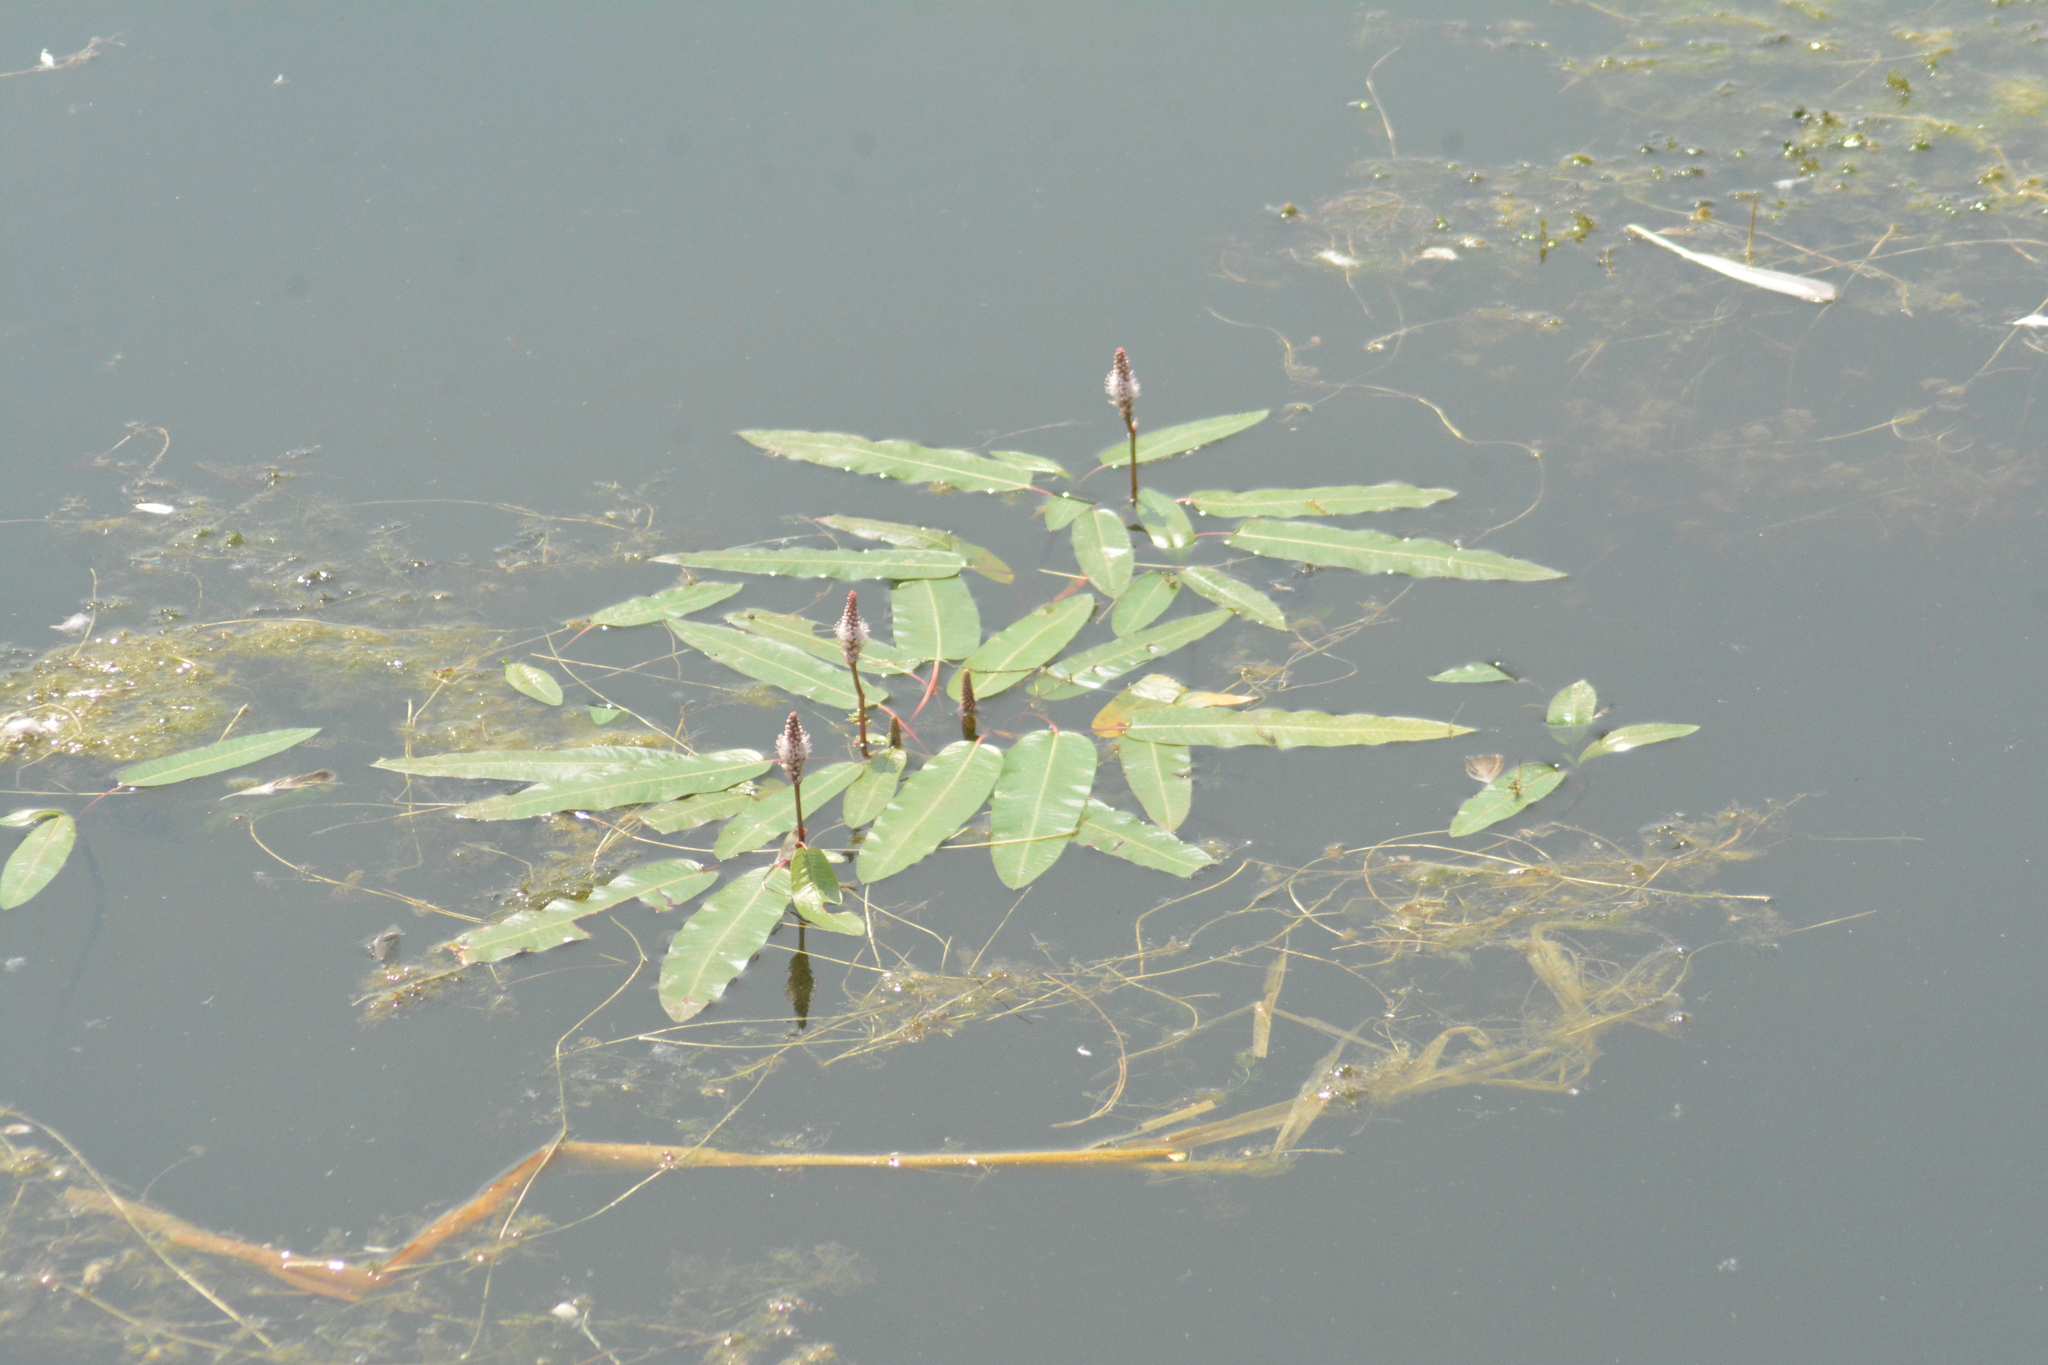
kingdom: Plantae
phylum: Tracheophyta
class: Magnoliopsida
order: Caryophyllales
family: Polygonaceae
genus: Persicaria
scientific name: Persicaria amphibia
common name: Amphibious bistort
